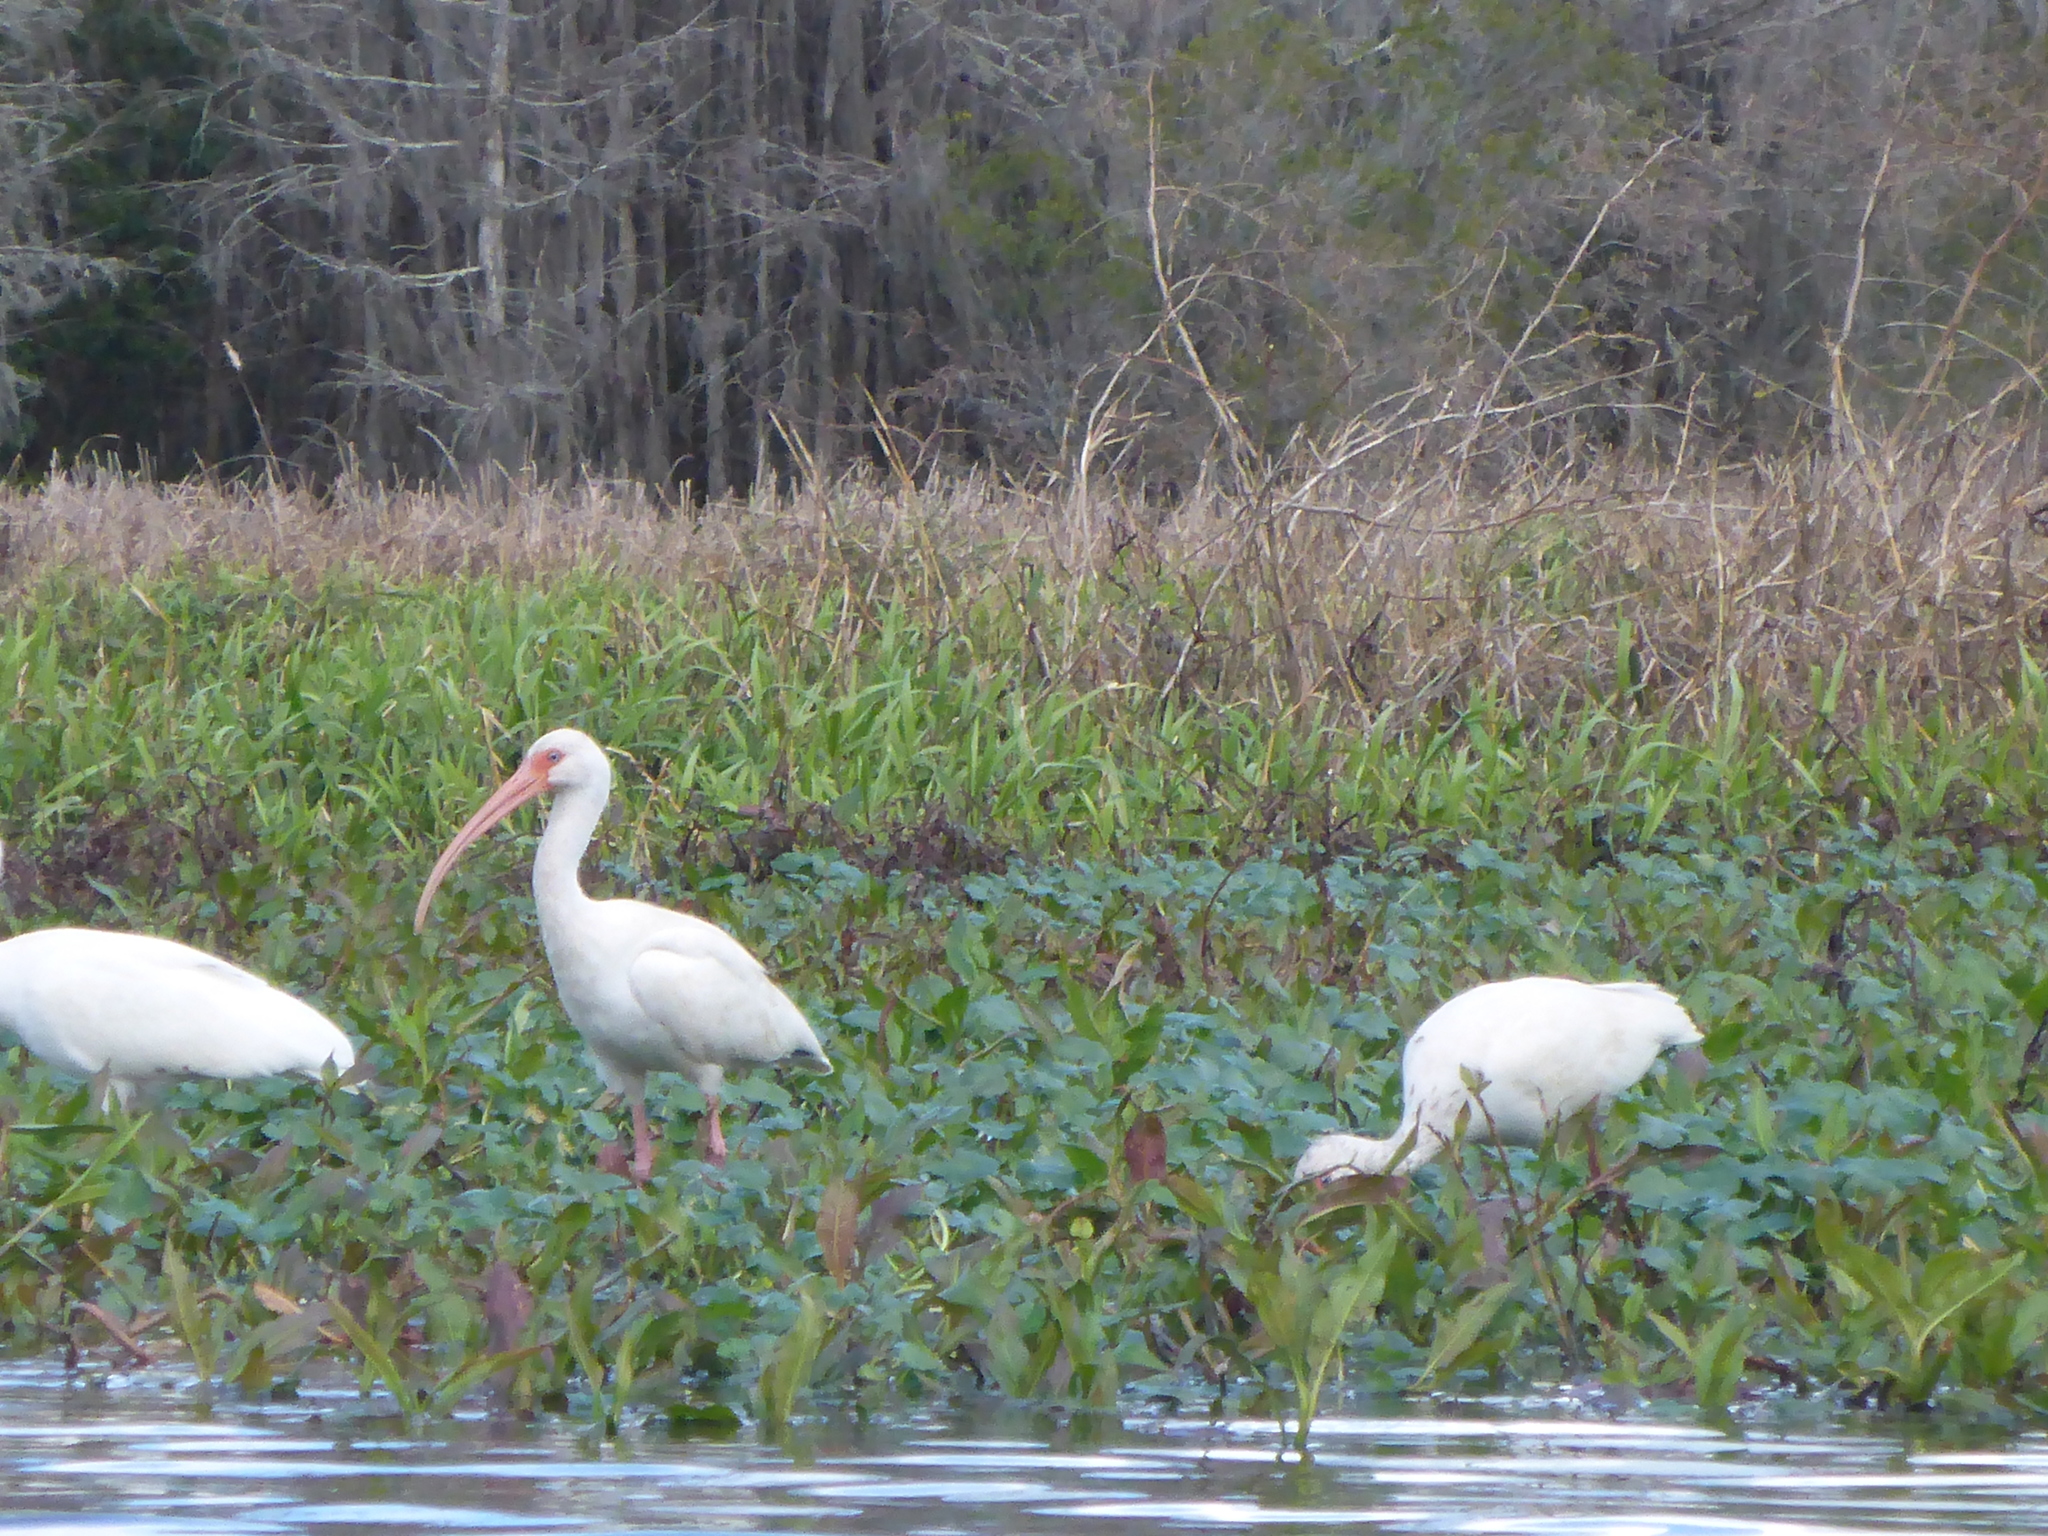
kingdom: Animalia
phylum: Chordata
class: Aves
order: Pelecaniformes
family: Threskiornithidae
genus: Eudocimus
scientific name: Eudocimus albus
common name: White ibis
